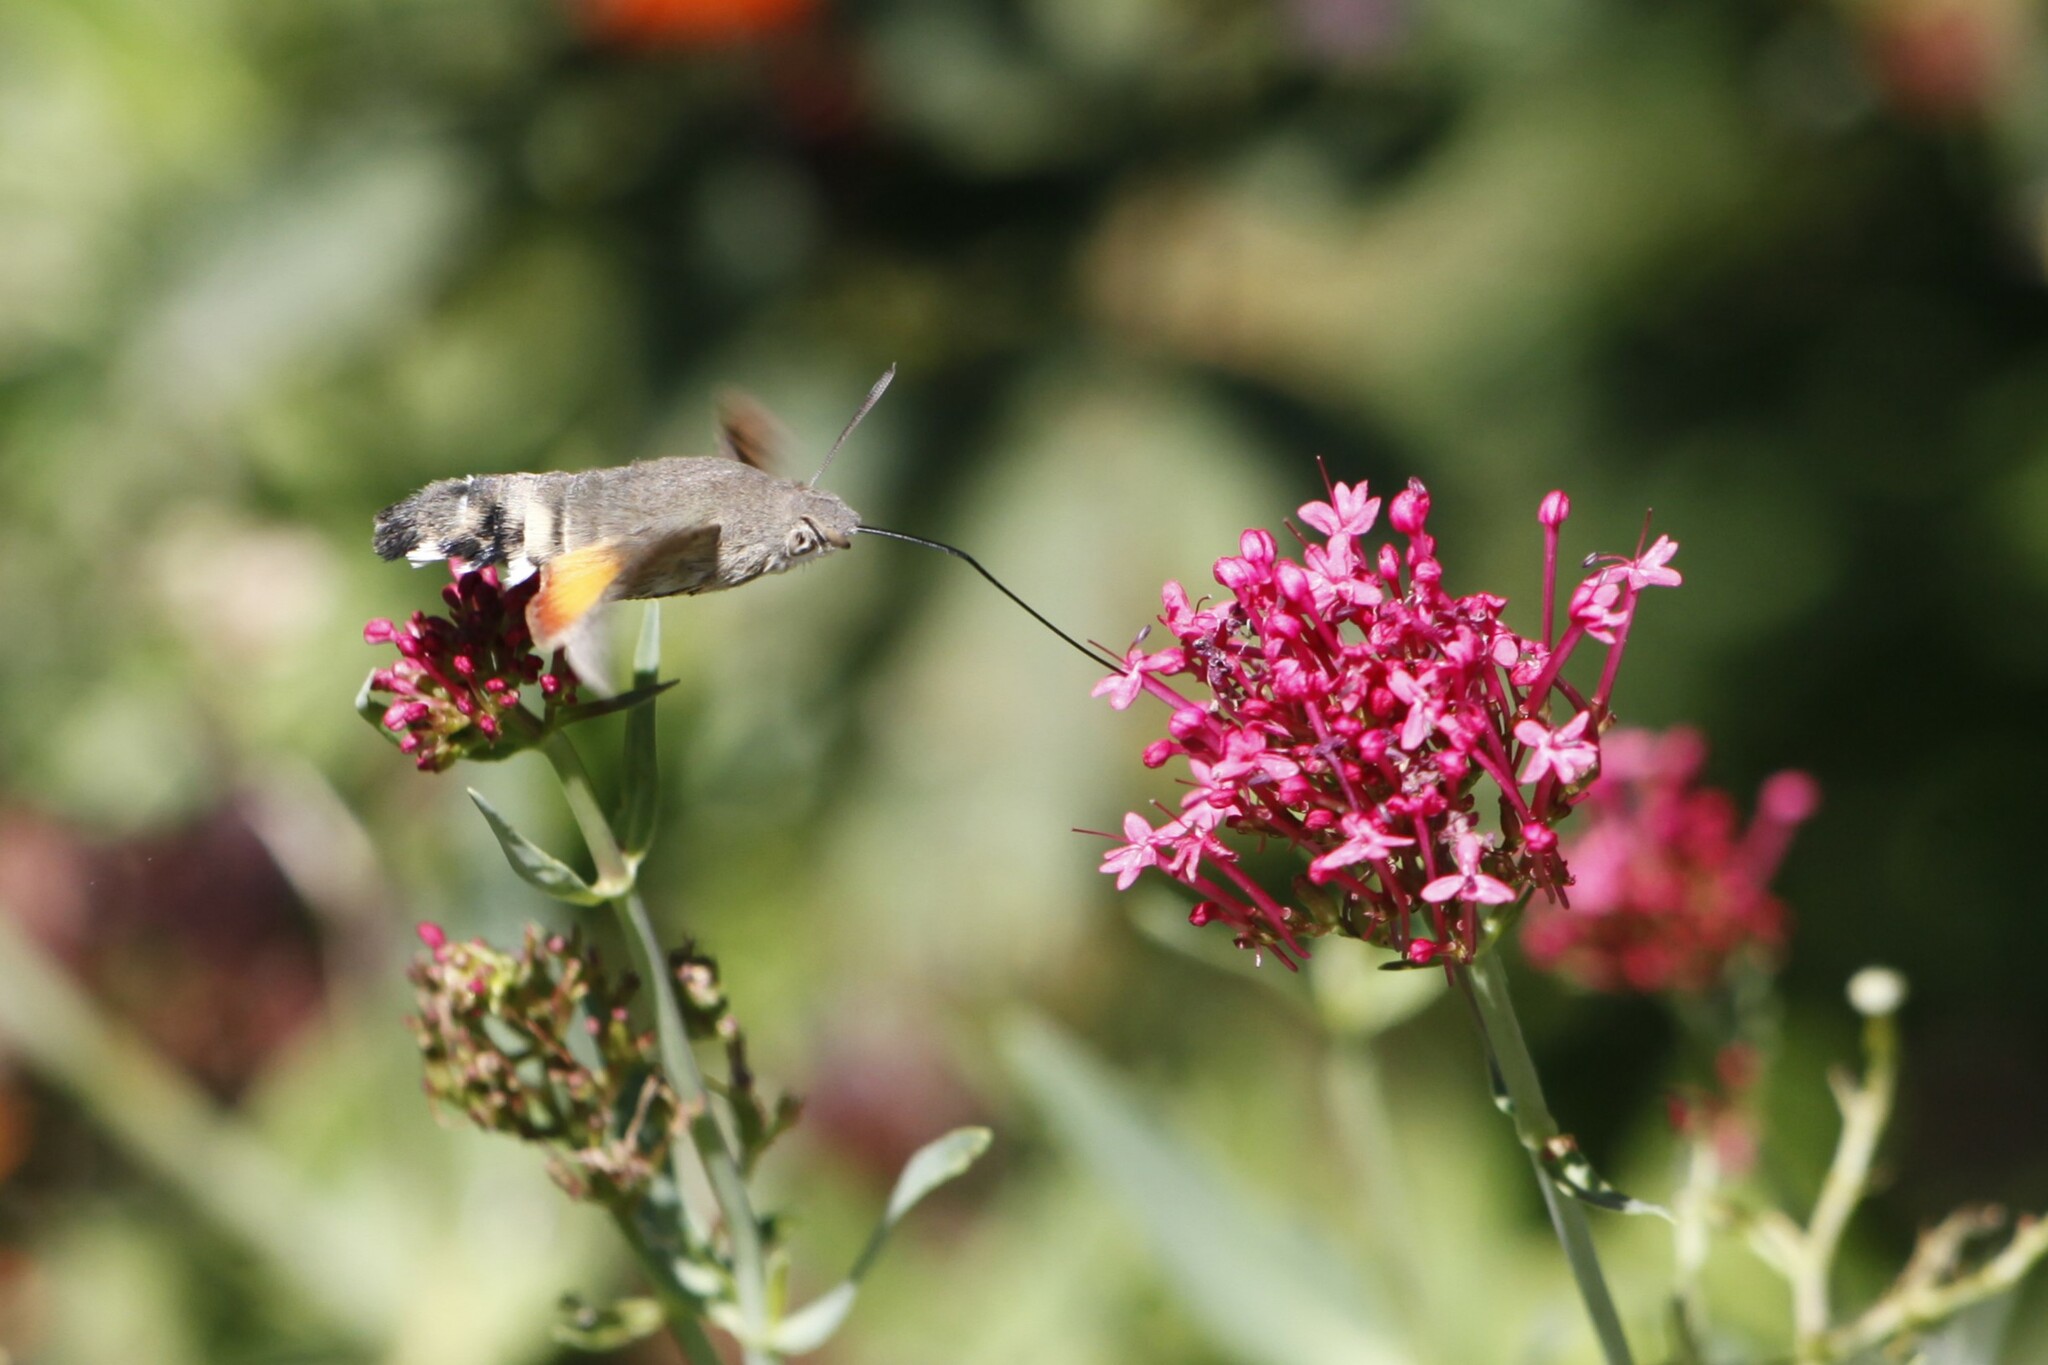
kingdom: Animalia
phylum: Arthropoda
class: Insecta
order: Lepidoptera
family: Sphingidae
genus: Macroglossum
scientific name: Macroglossum stellatarum
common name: Humming-bird hawk-moth
